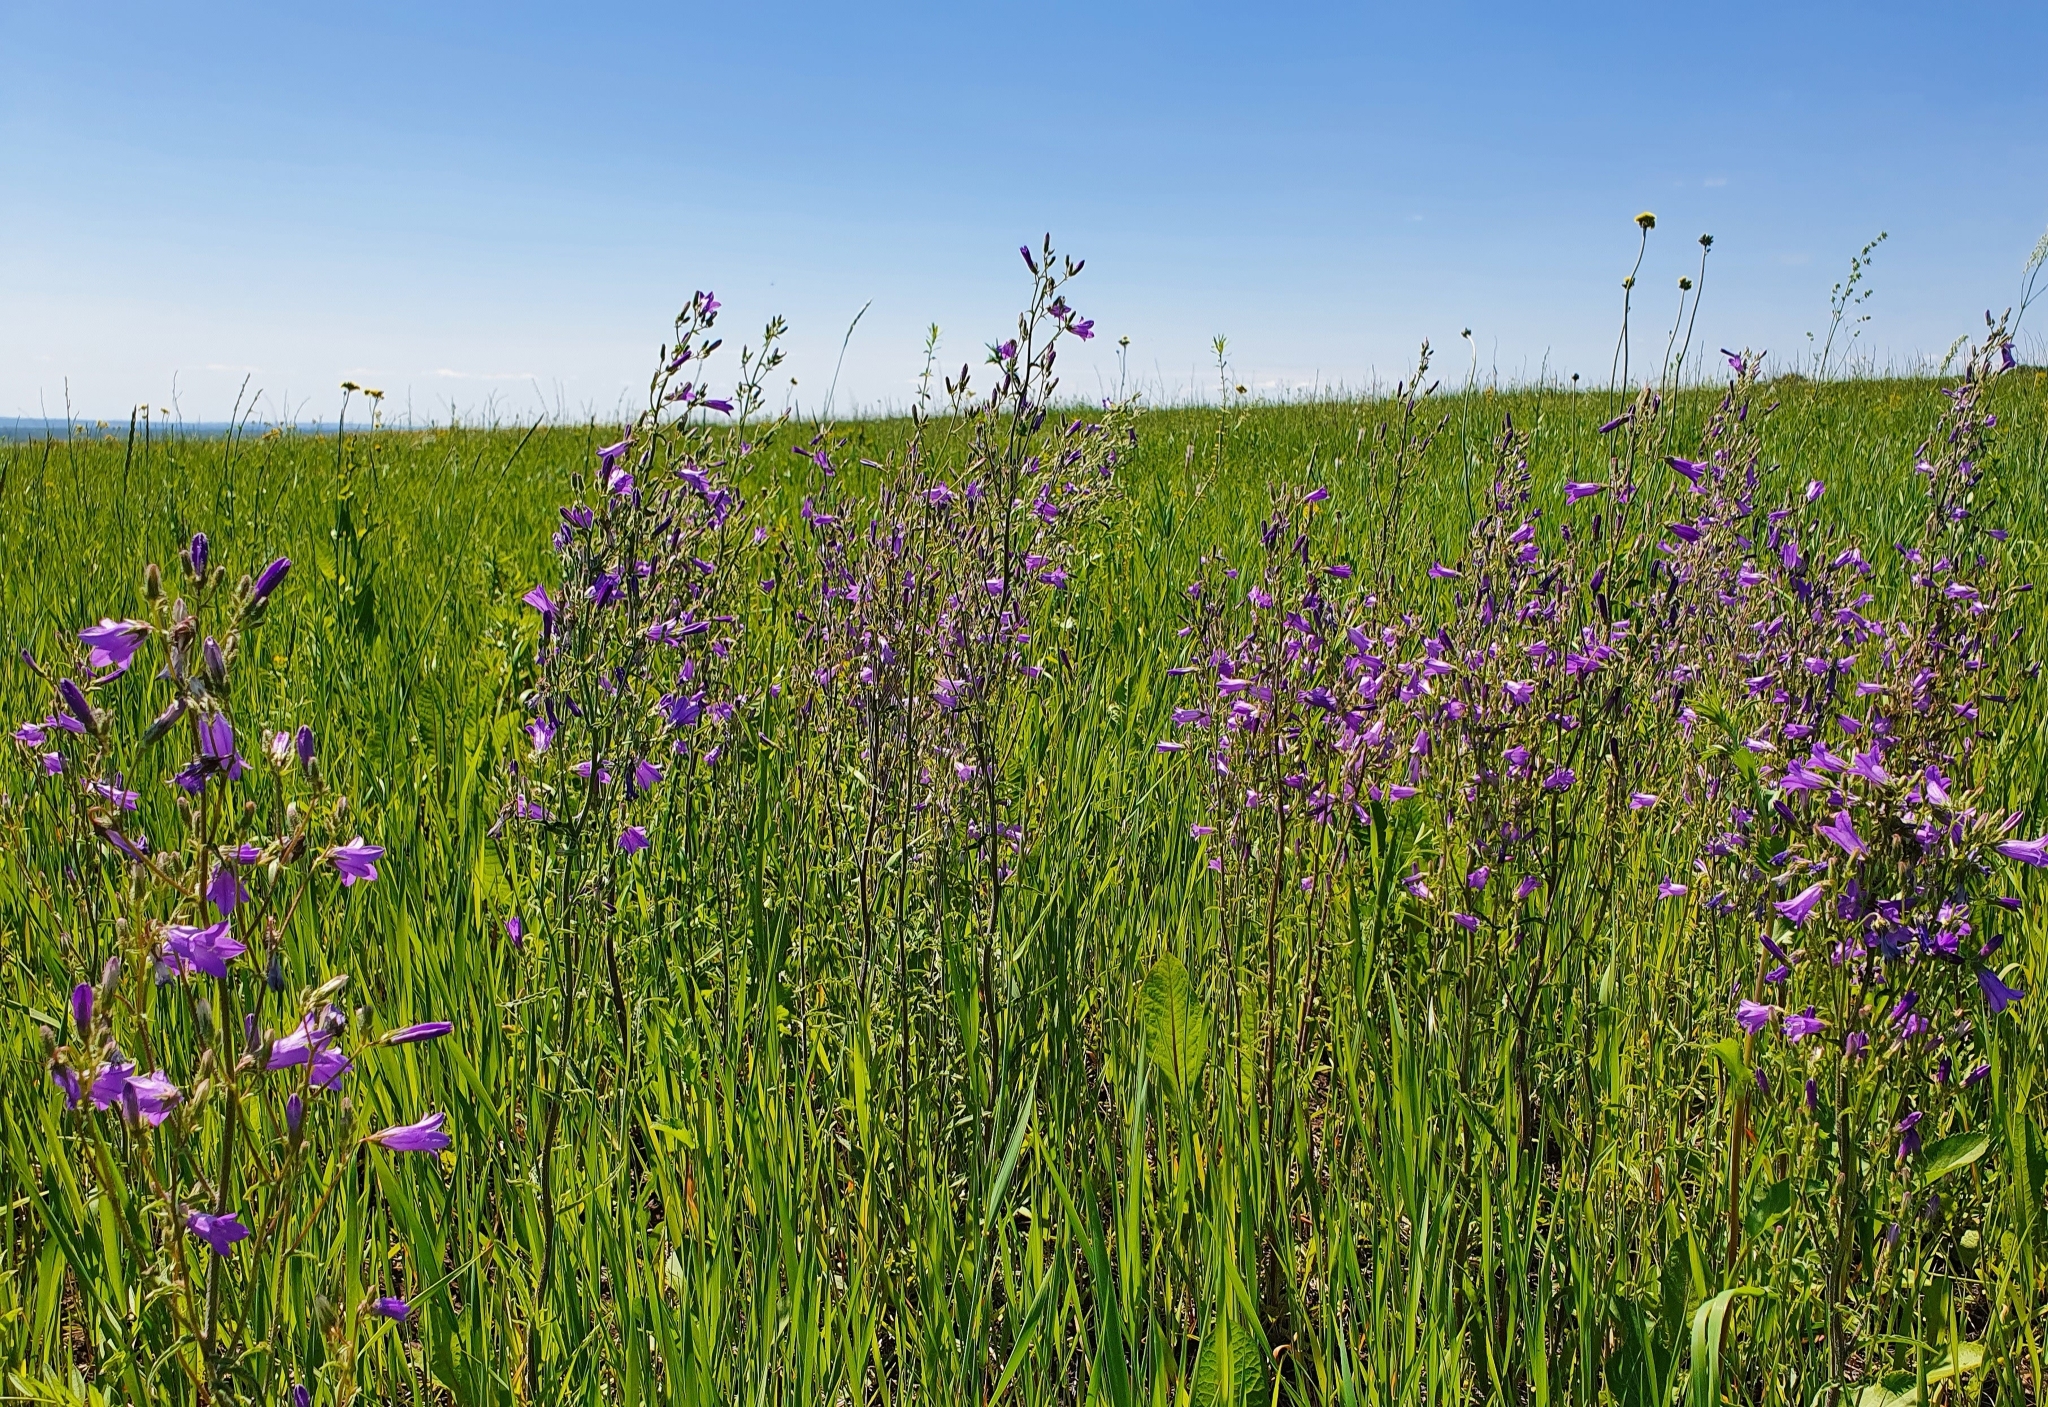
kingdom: Plantae
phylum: Tracheophyta
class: Magnoliopsida
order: Asterales
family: Campanulaceae
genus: Campanula
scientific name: Campanula sibirica
